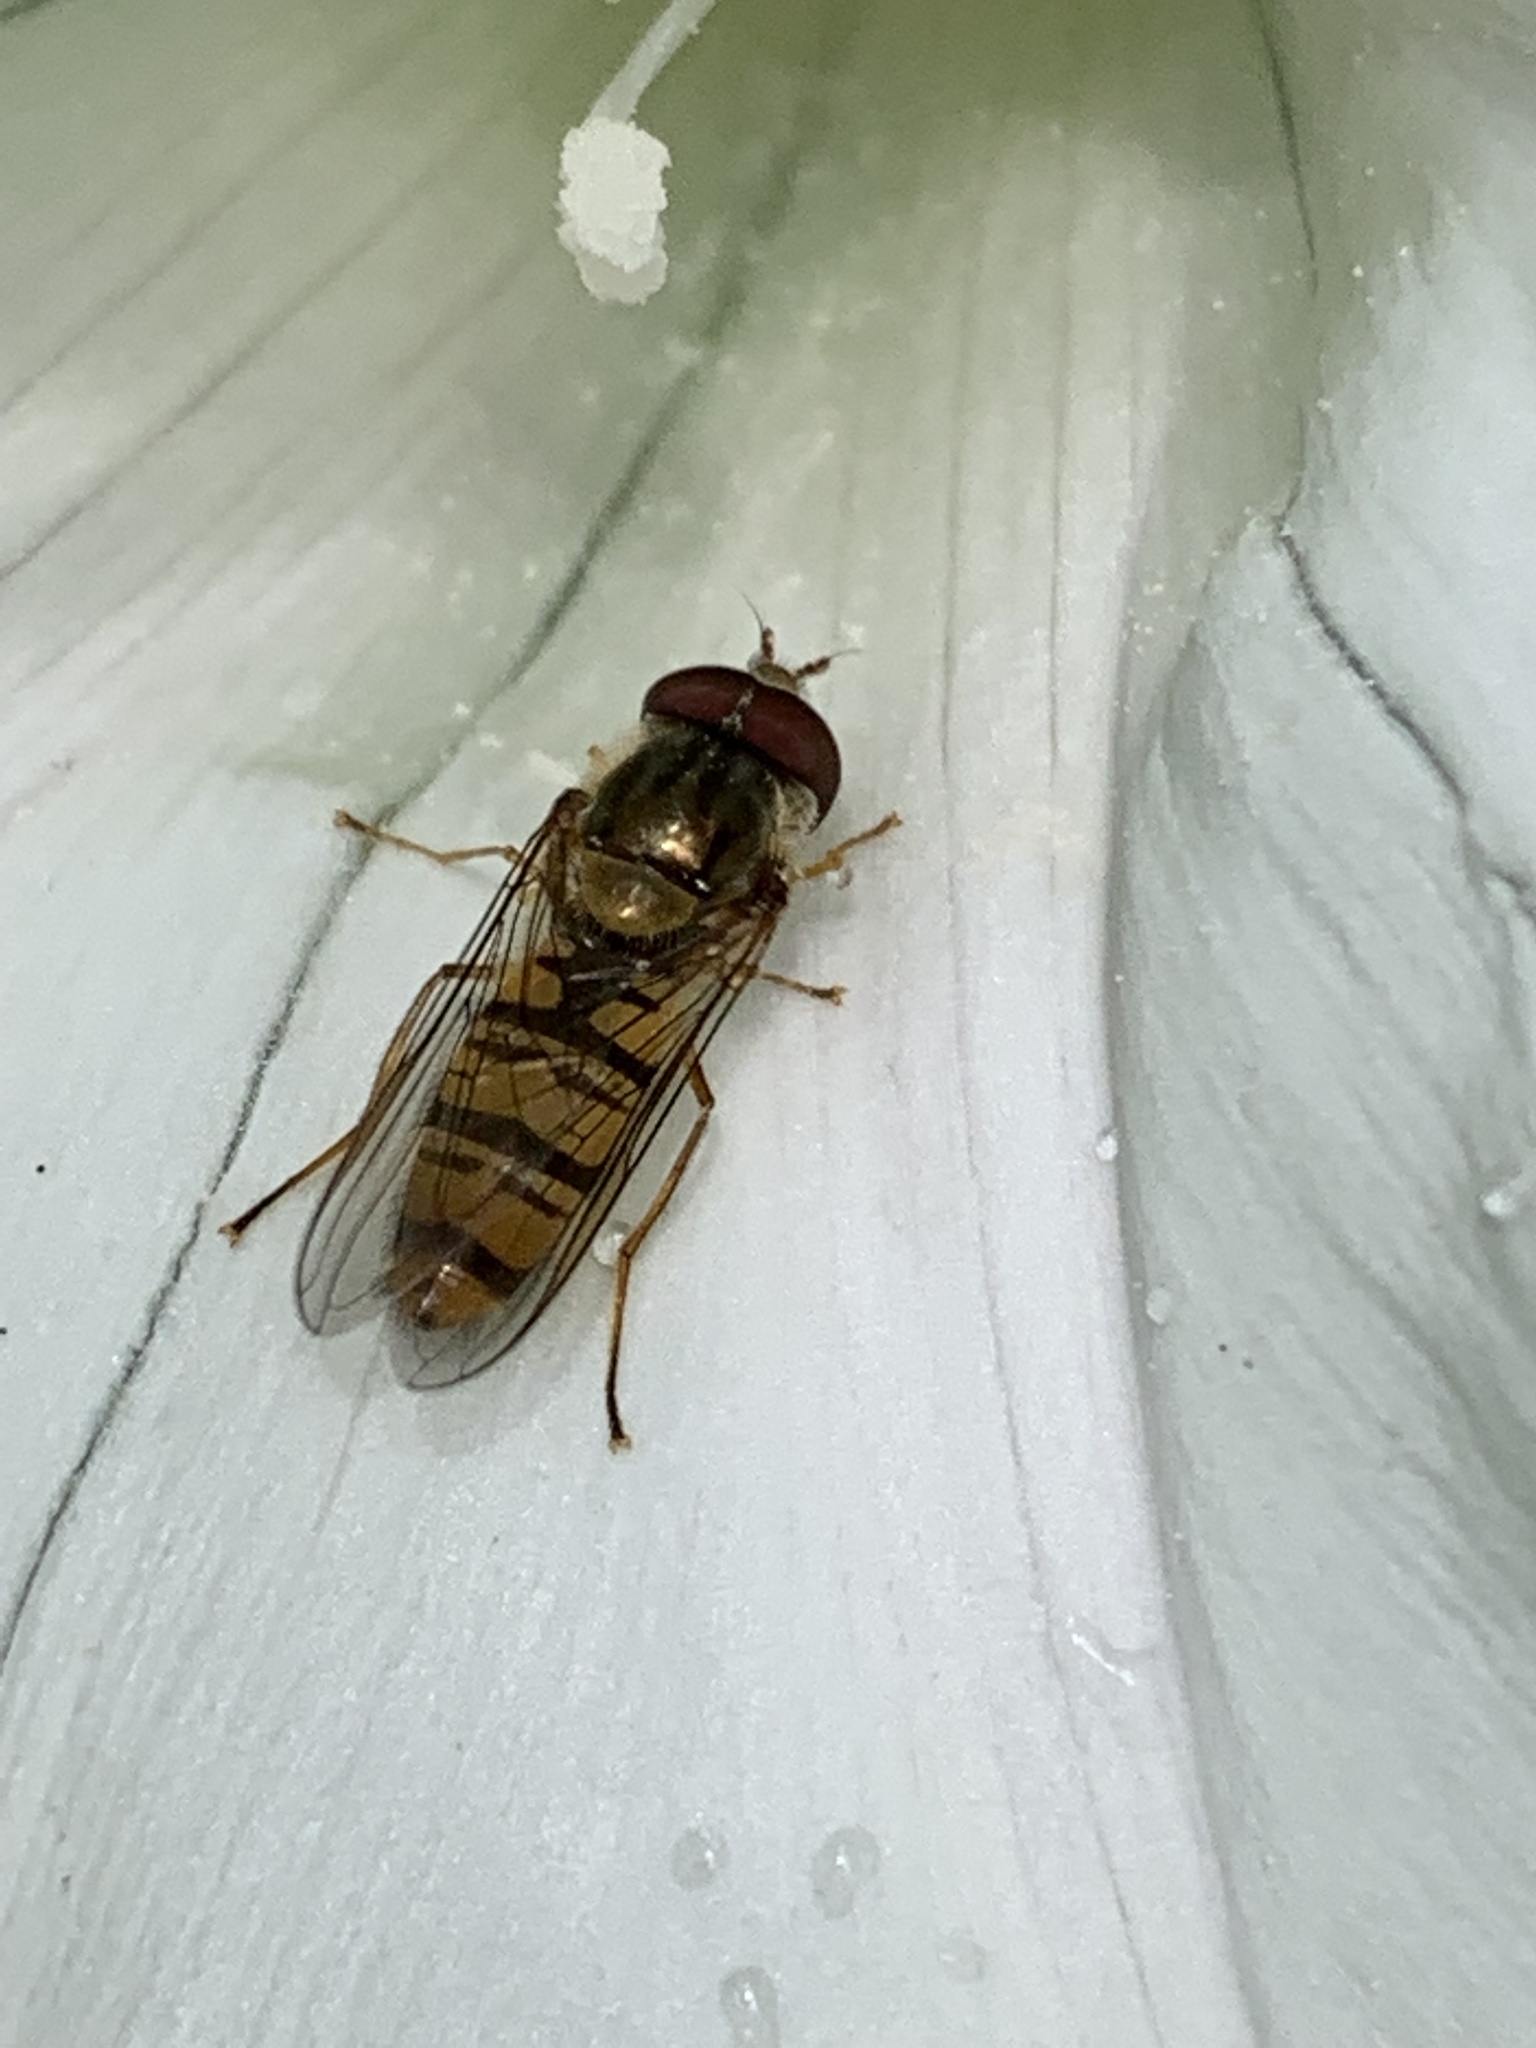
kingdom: Animalia
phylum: Arthropoda
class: Insecta
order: Diptera
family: Syrphidae
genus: Episyrphus
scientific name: Episyrphus balteatus
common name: Marmalade hoverfly
